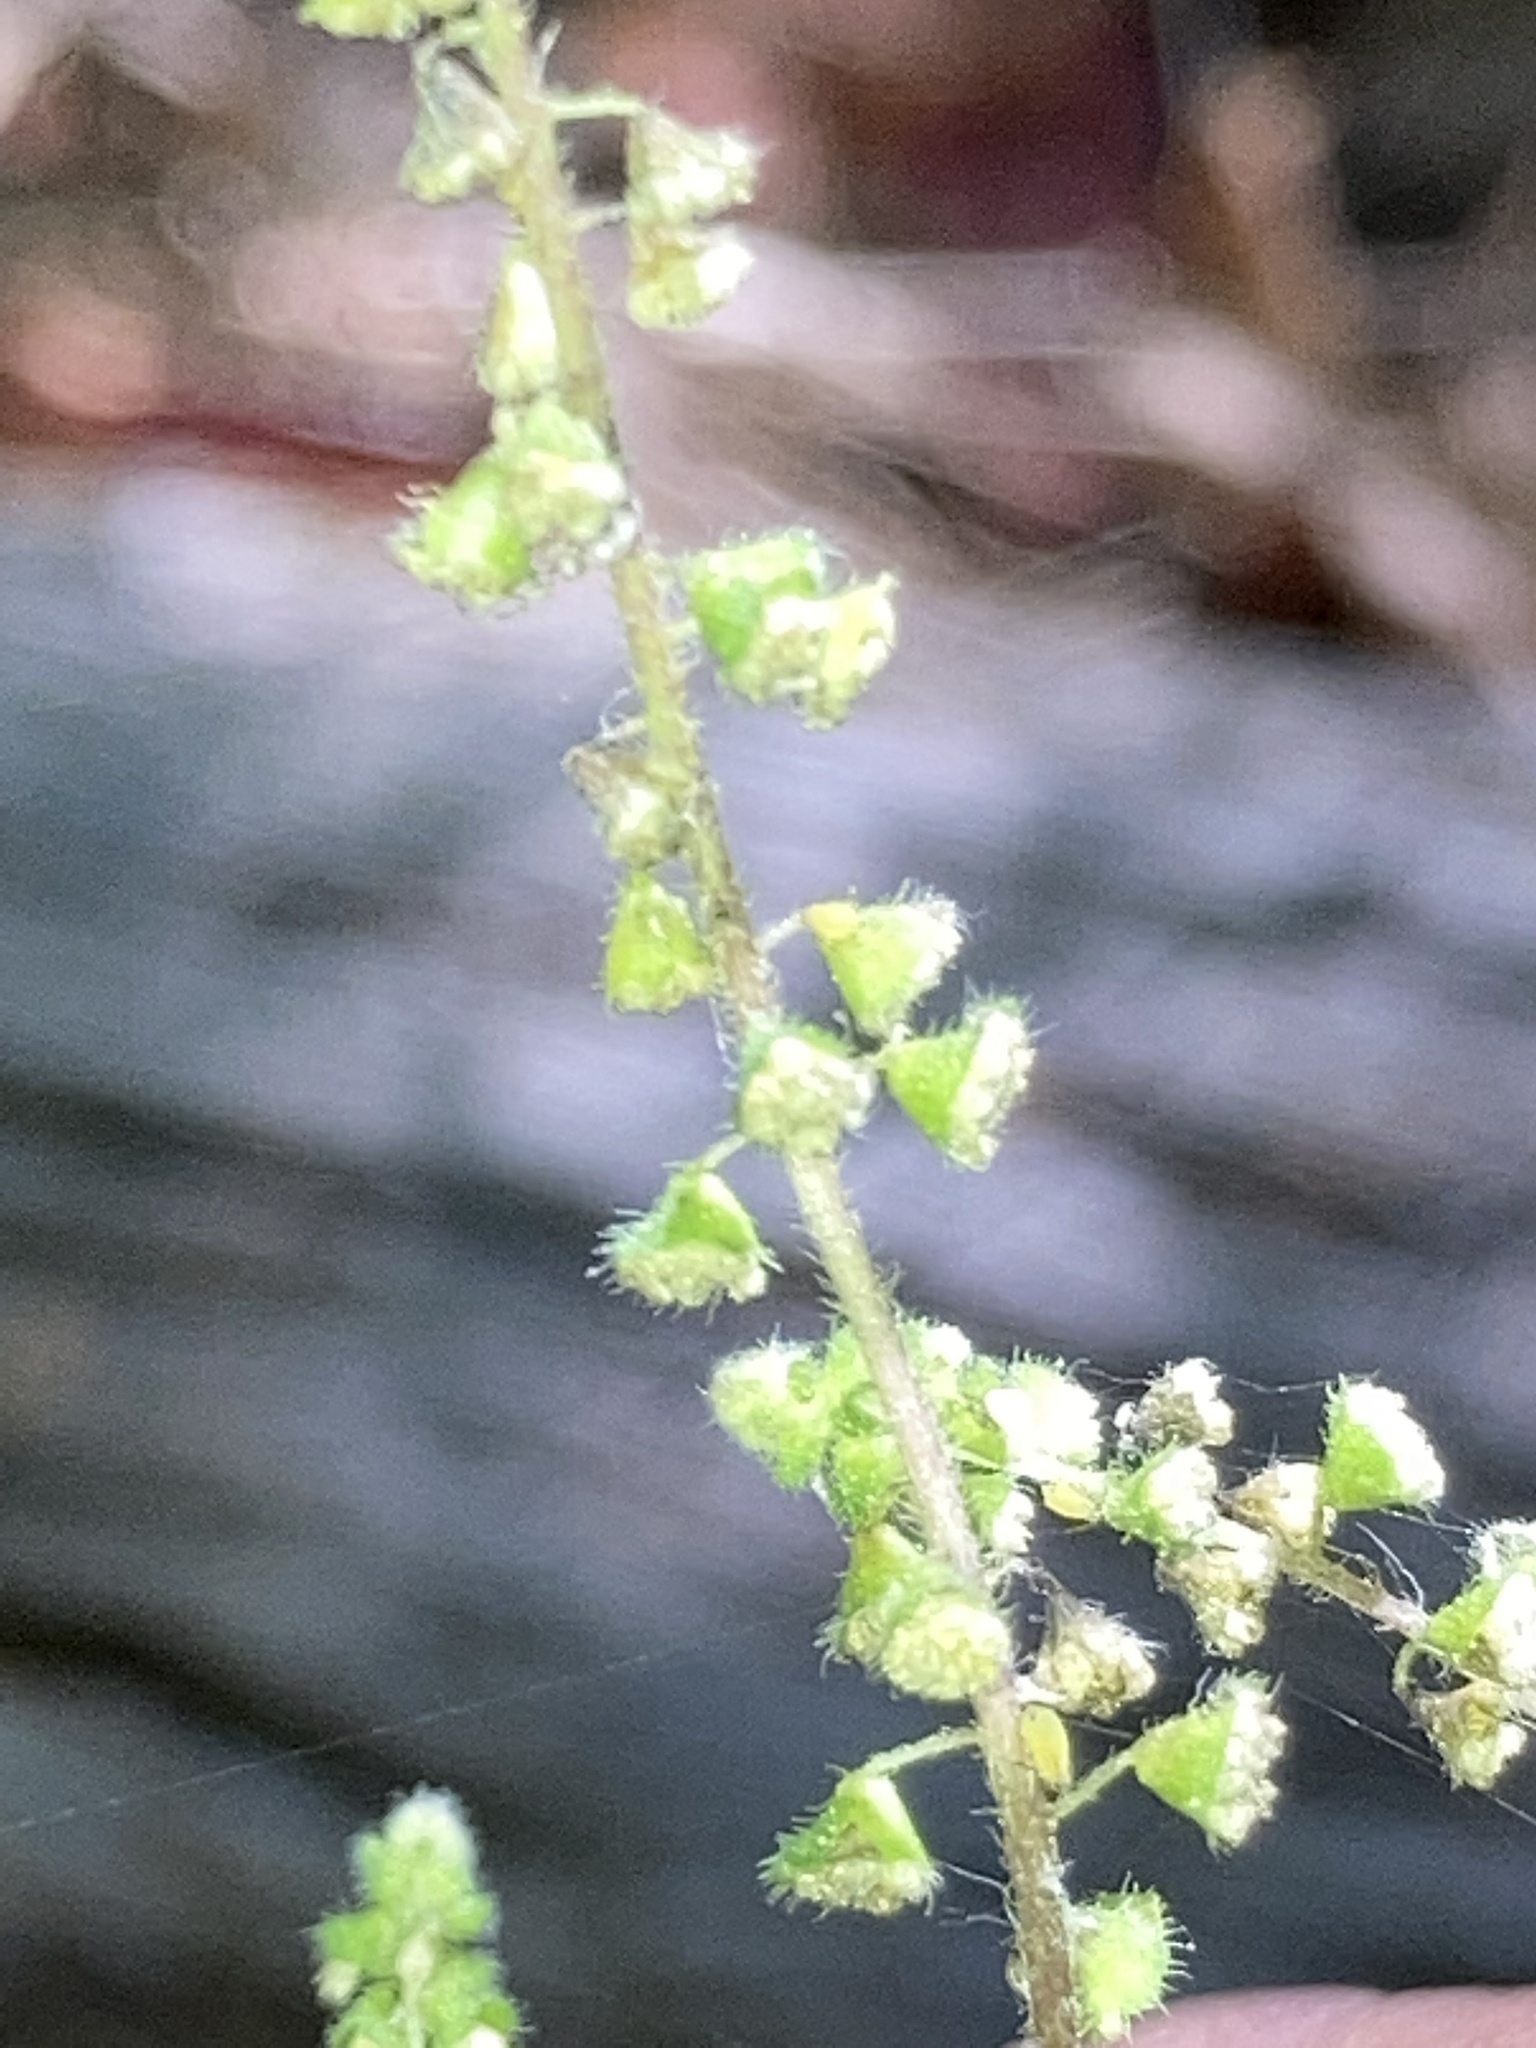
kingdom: Plantae
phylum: Tracheophyta
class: Magnoliopsida
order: Asterales
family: Asteraceae
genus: Ambrosia
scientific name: Ambrosia artemisiifolia
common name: Annual ragweed
